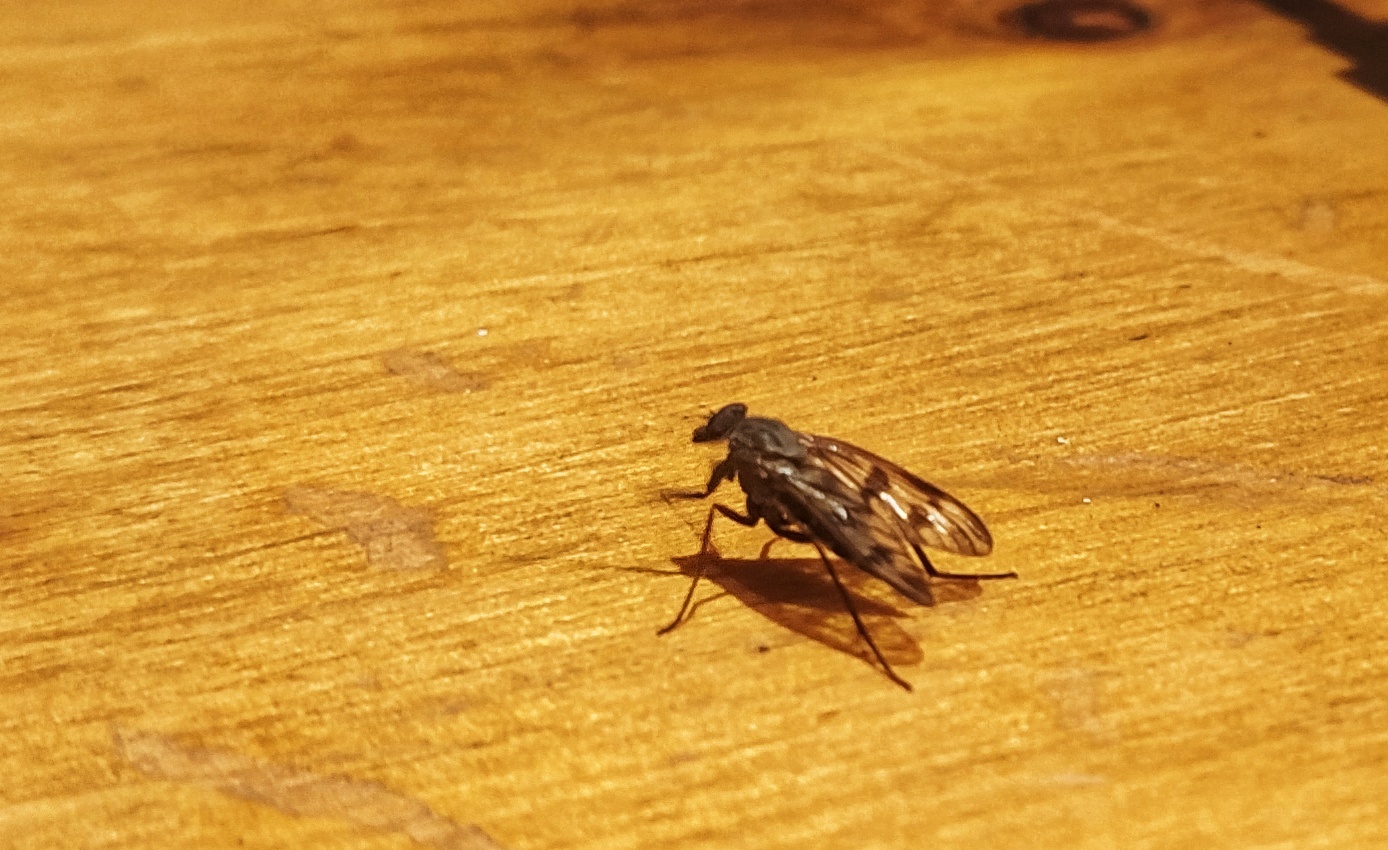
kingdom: Animalia
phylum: Arthropoda
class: Insecta
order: Diptera
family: Rhagionidae
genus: Rhagio
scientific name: Rhagio mystaceus
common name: Common snipe fly
